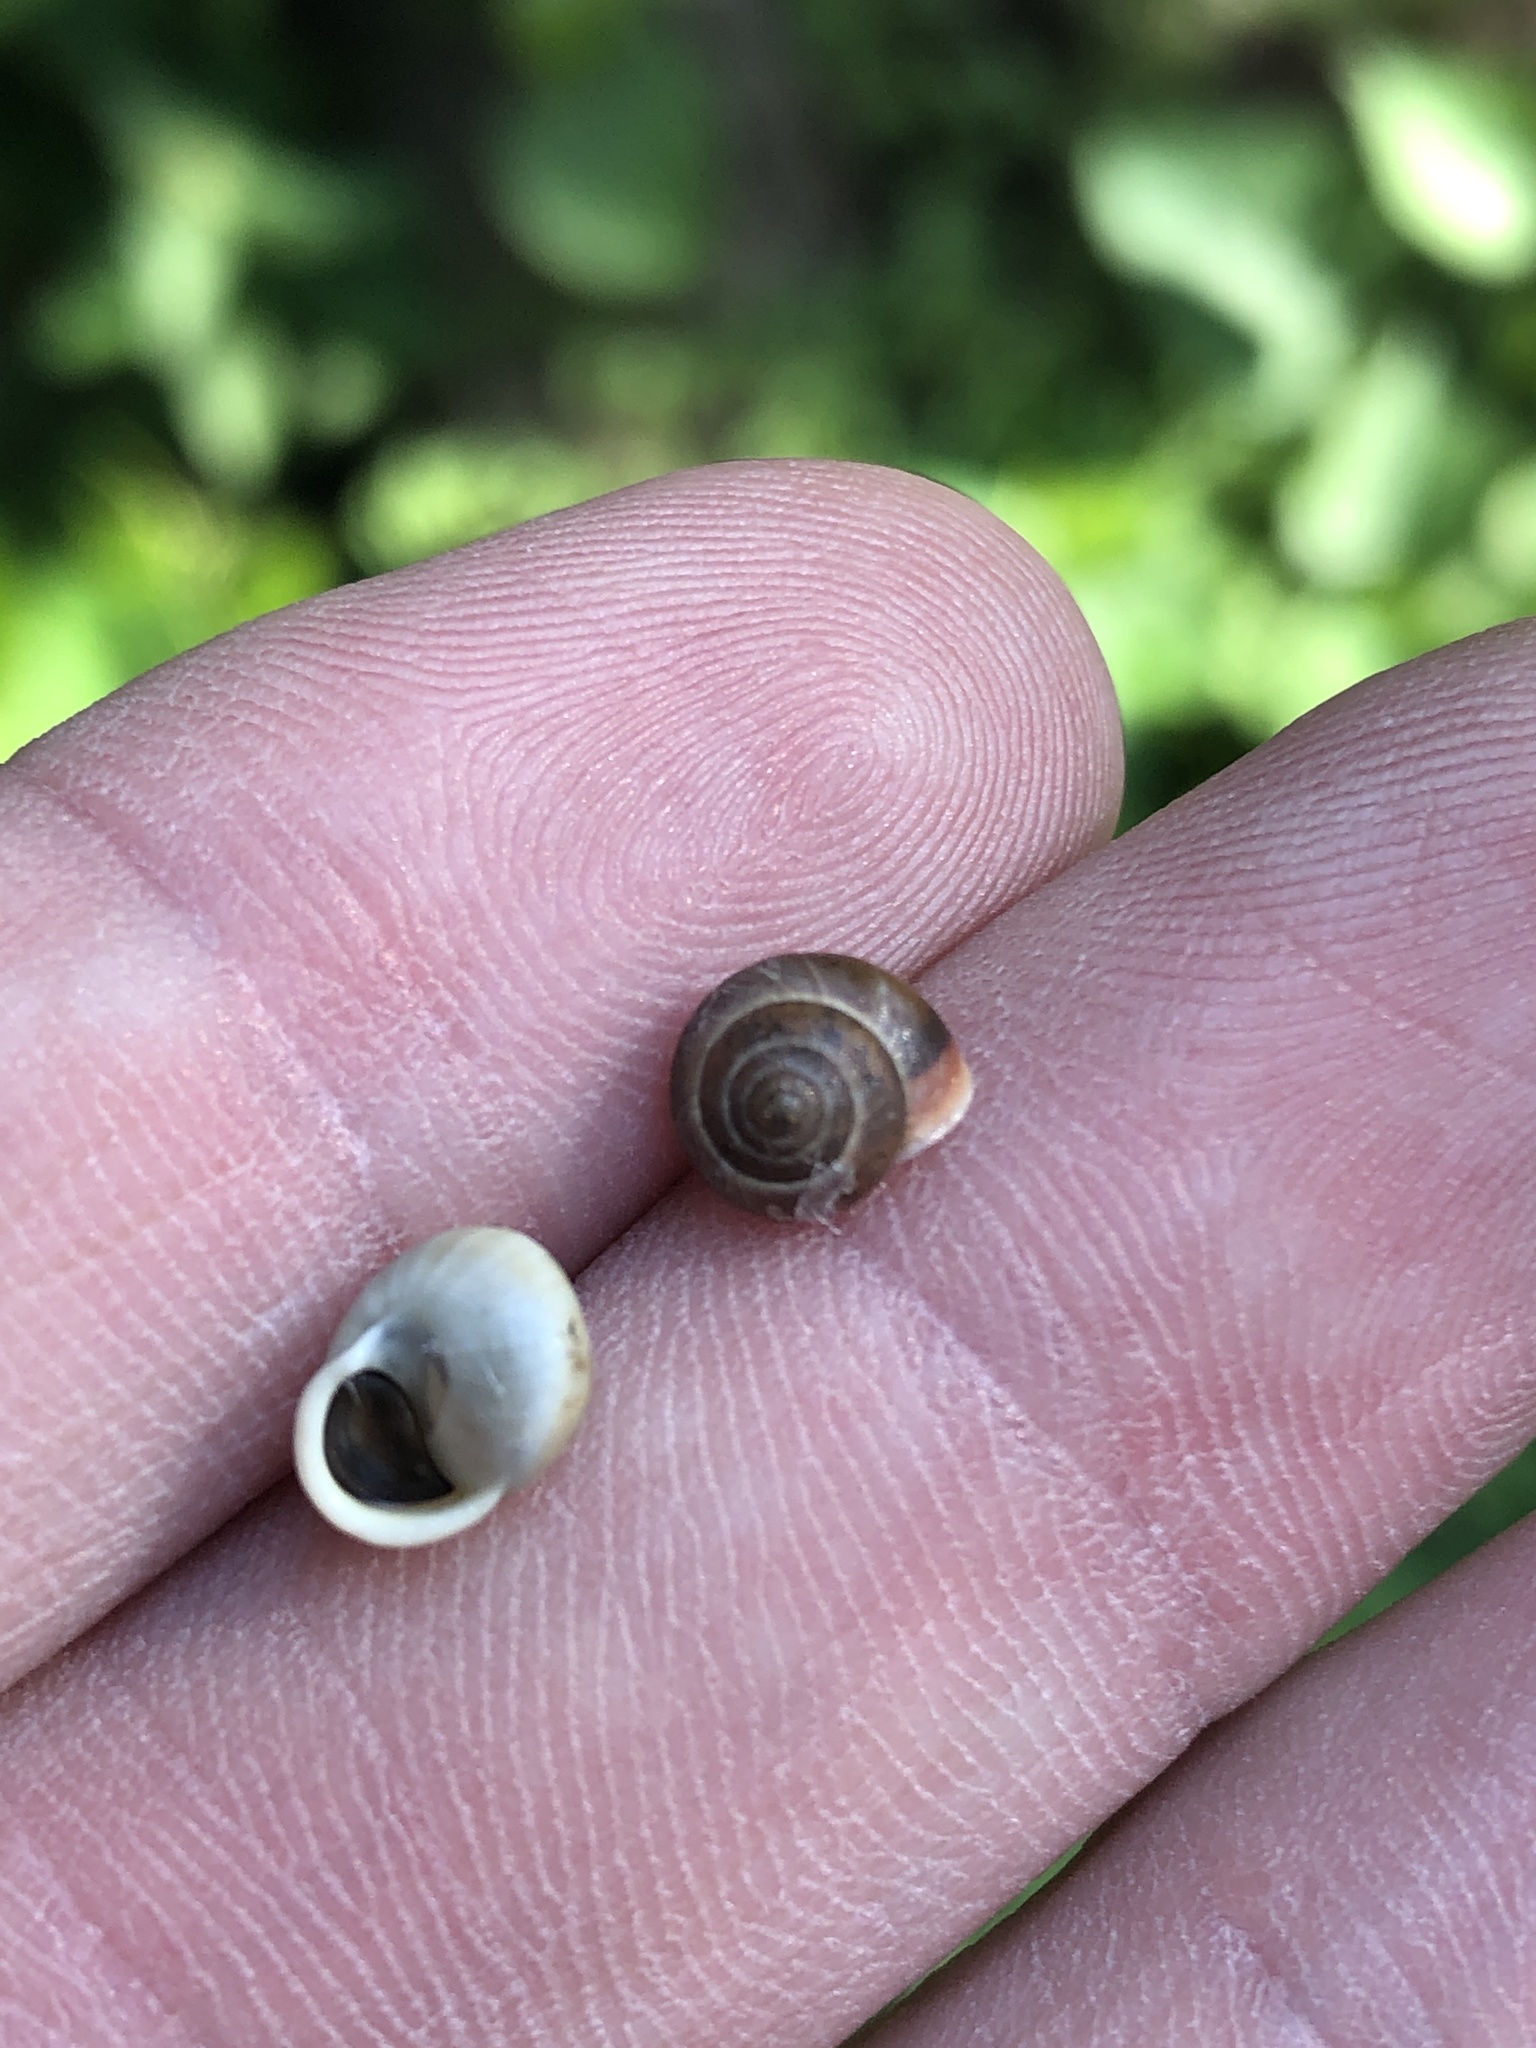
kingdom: Animalia
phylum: Mollusca
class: Gastropoda
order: Cycloneritida
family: Helicinidae
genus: Helicina
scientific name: Helicina orbiculata
